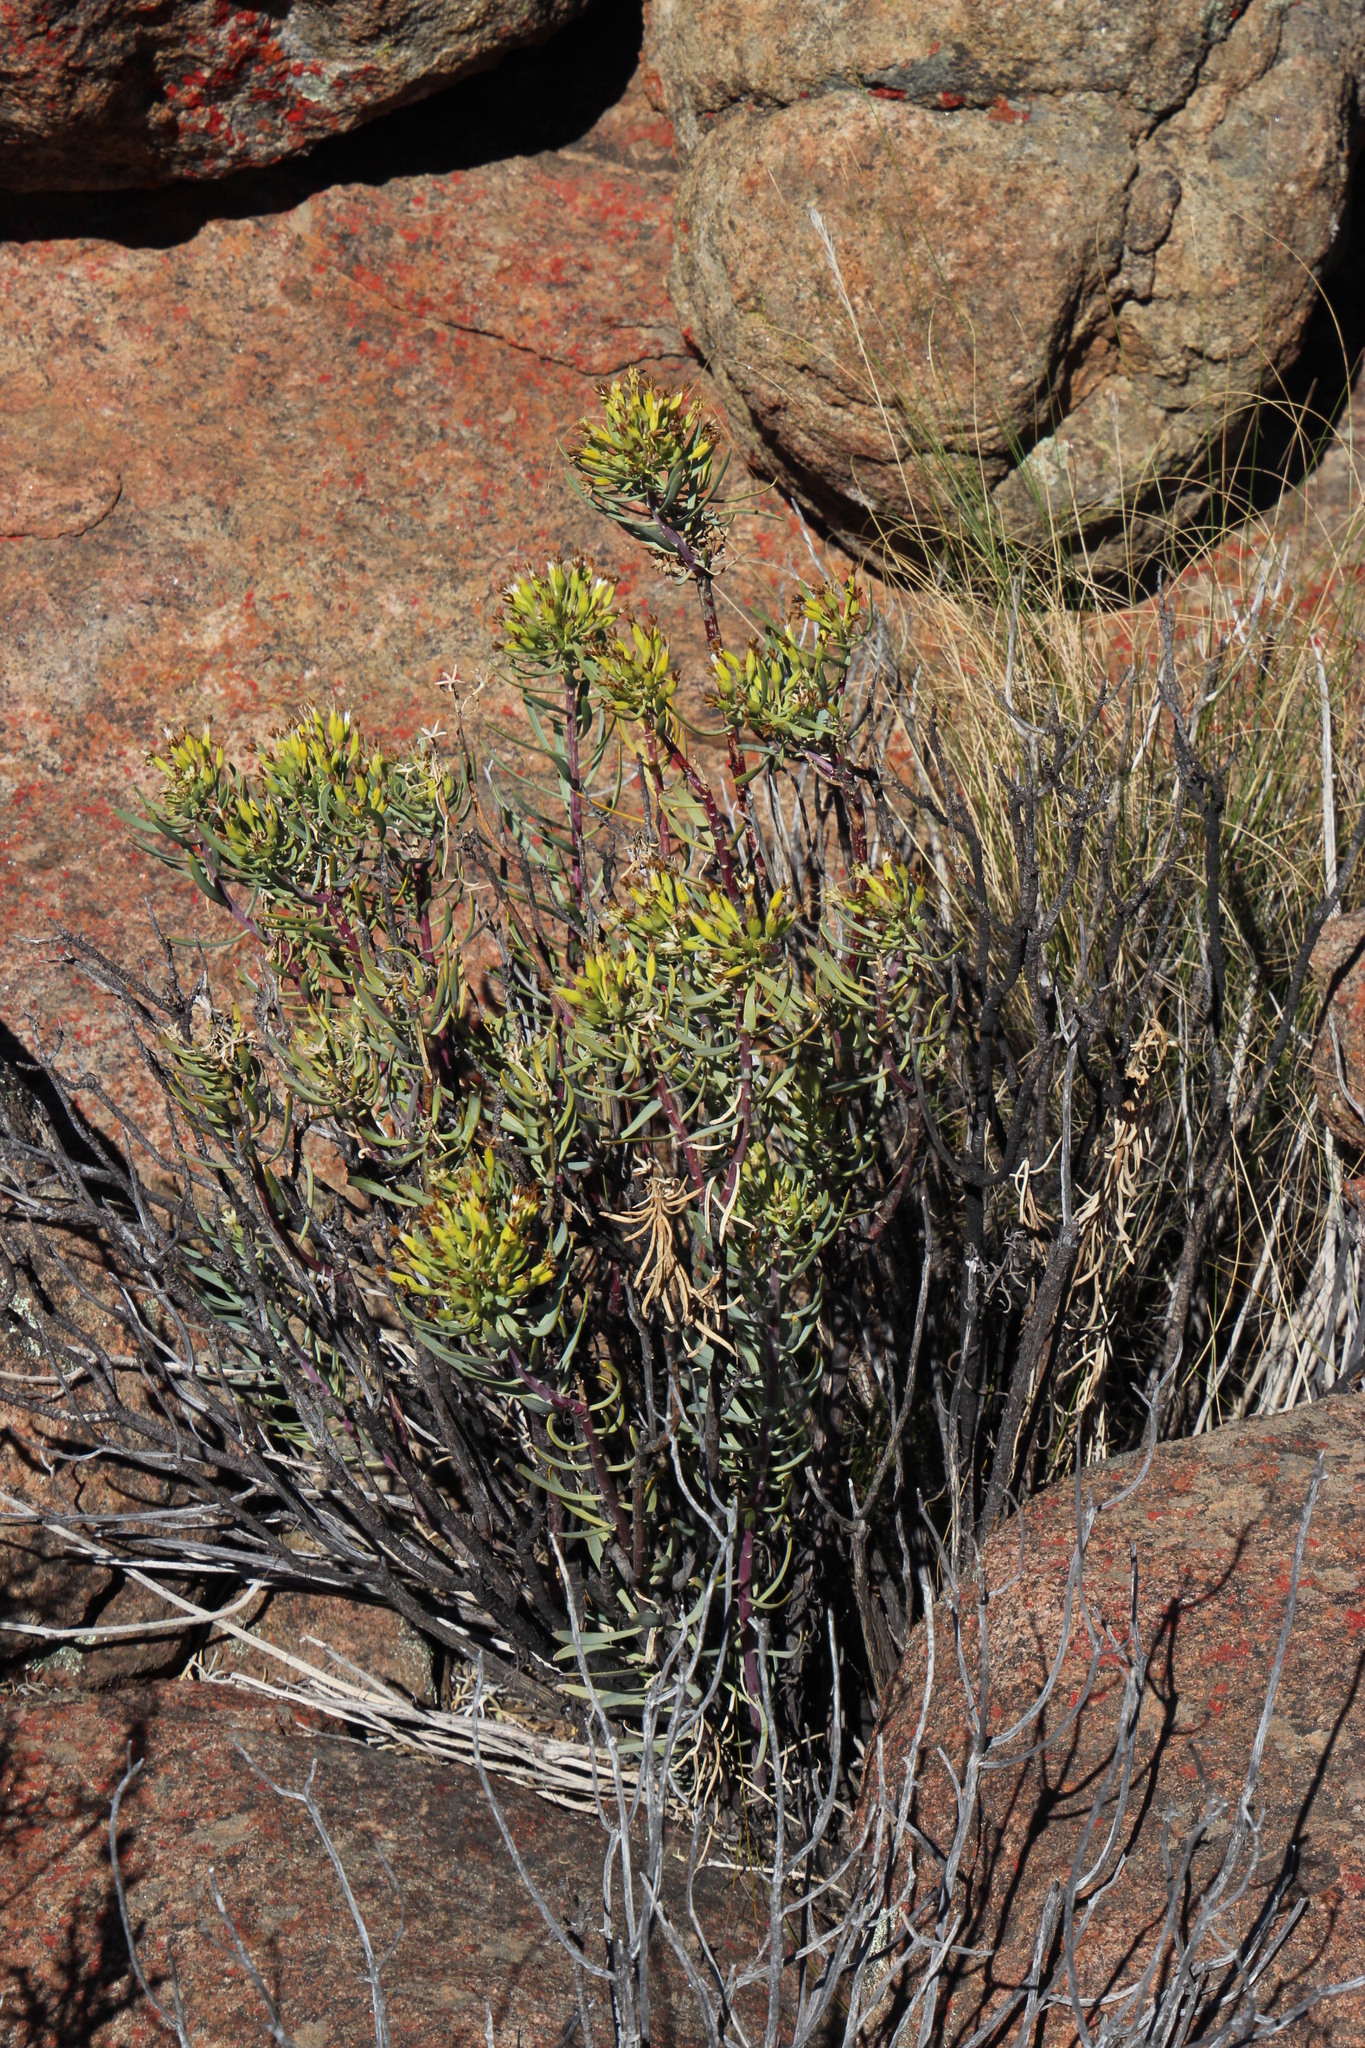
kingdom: Plantae
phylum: Tracheophyta
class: Magnoliopsida
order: Asterales
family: Asteraceae
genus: Lopholaena
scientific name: Lopholaena cneorifolia
